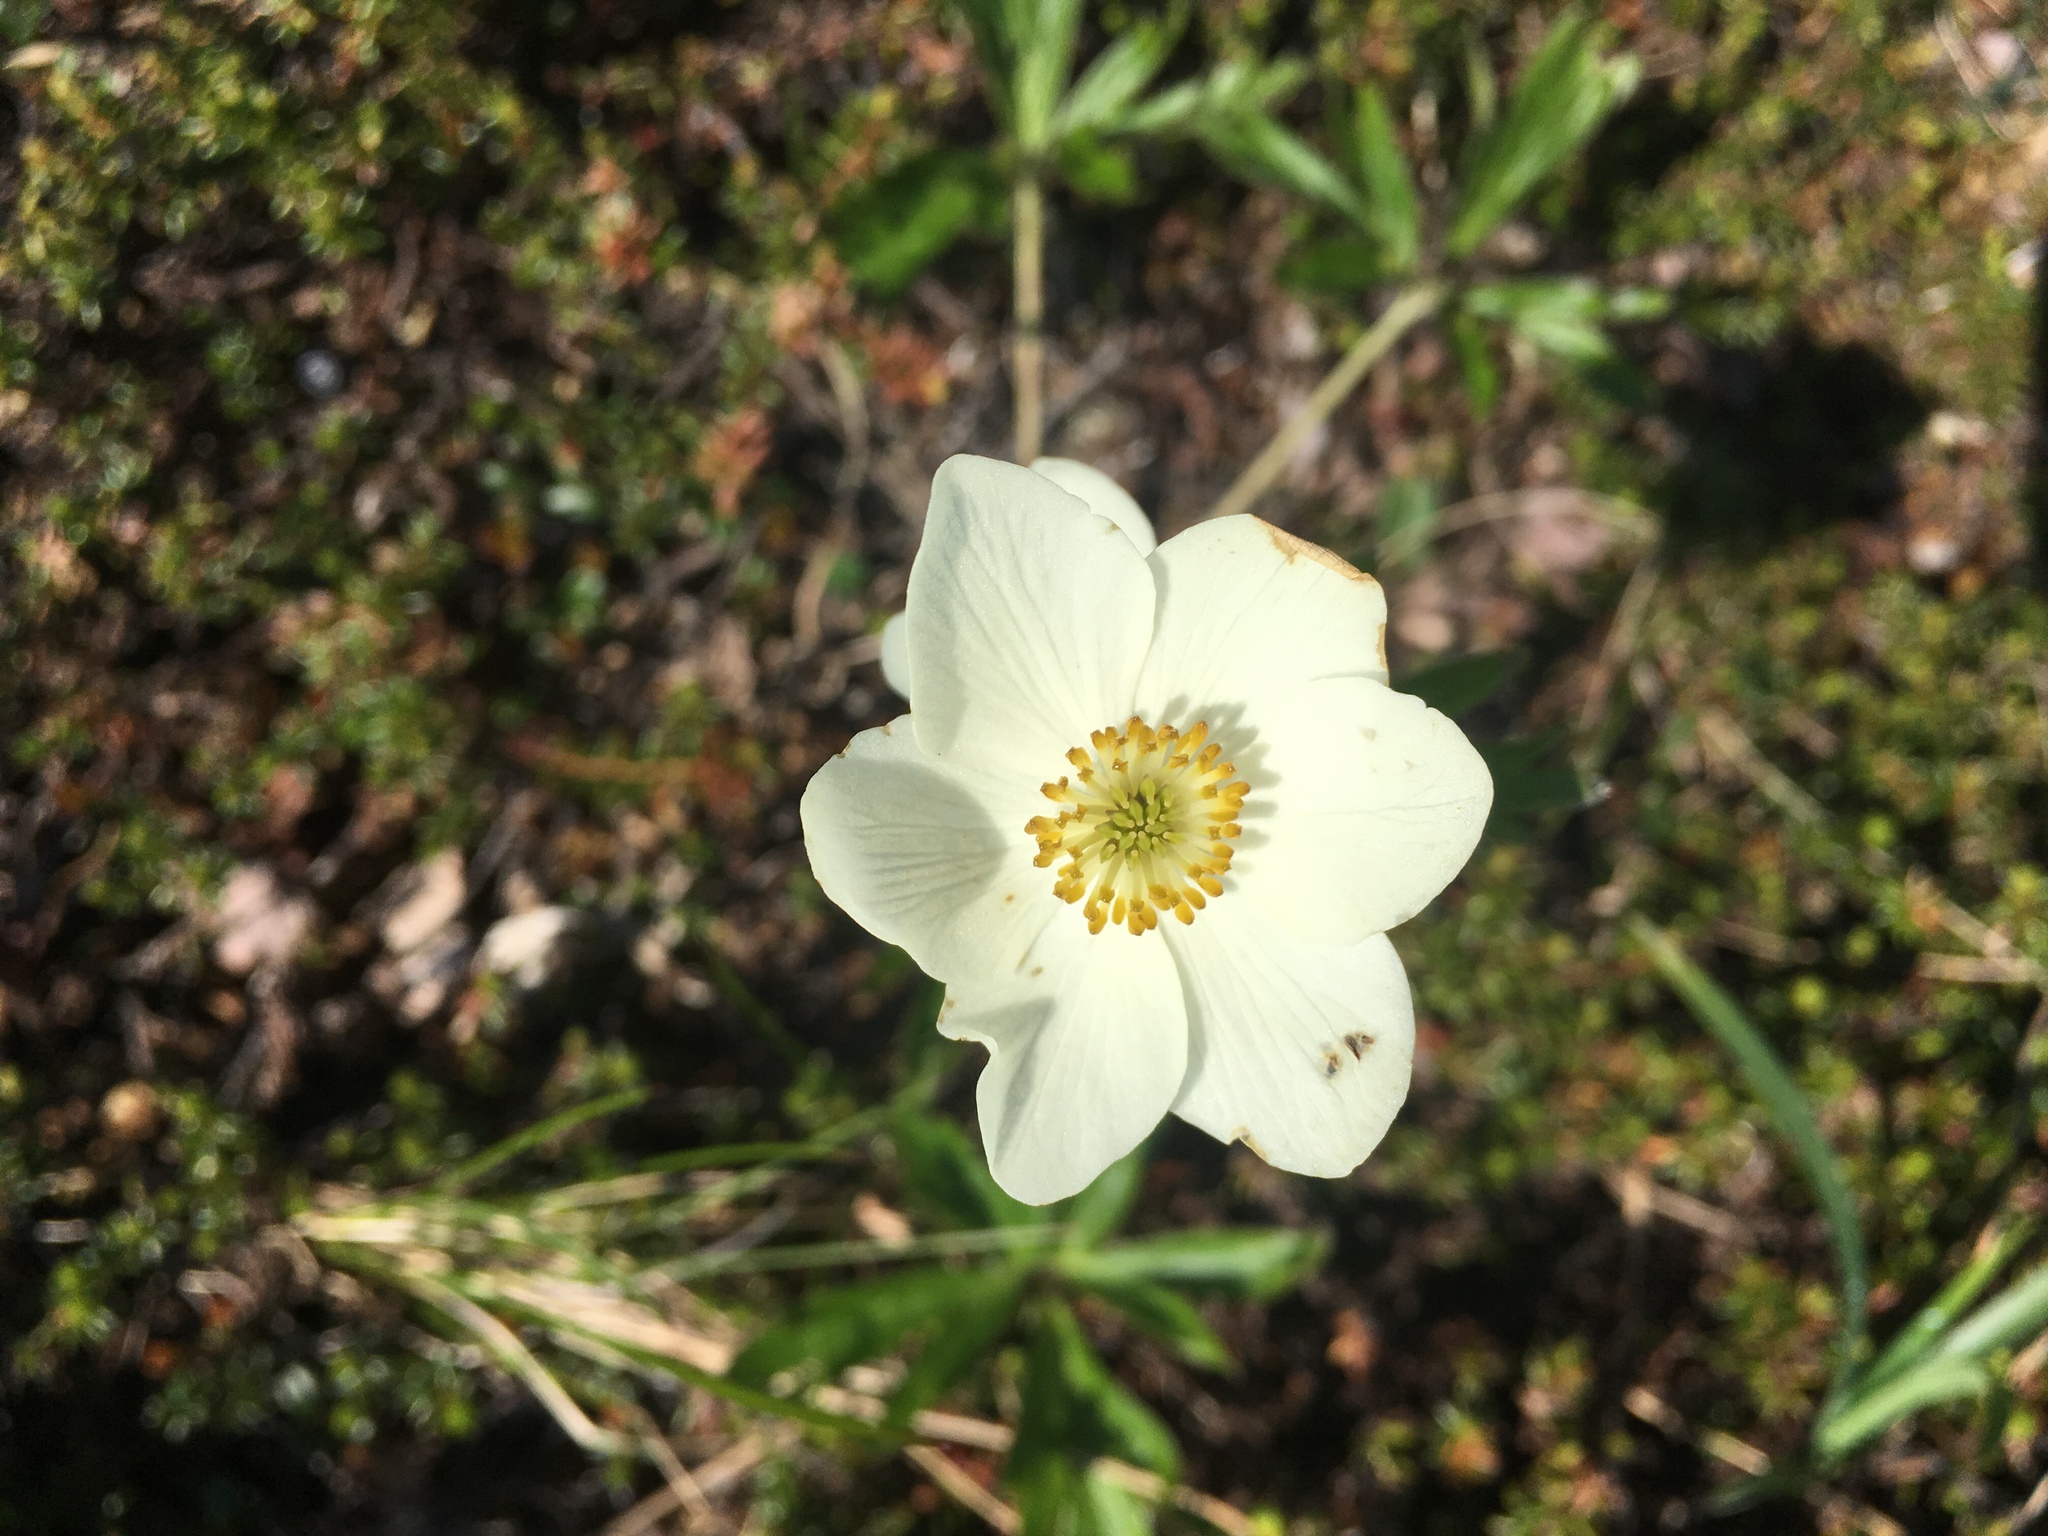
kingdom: Plantae
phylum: Tracheophyta
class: Magnoliopsida
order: Ranunculales
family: Ranunculaceae
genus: Anemonastrum
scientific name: Anemonastrum narcissiflorum
